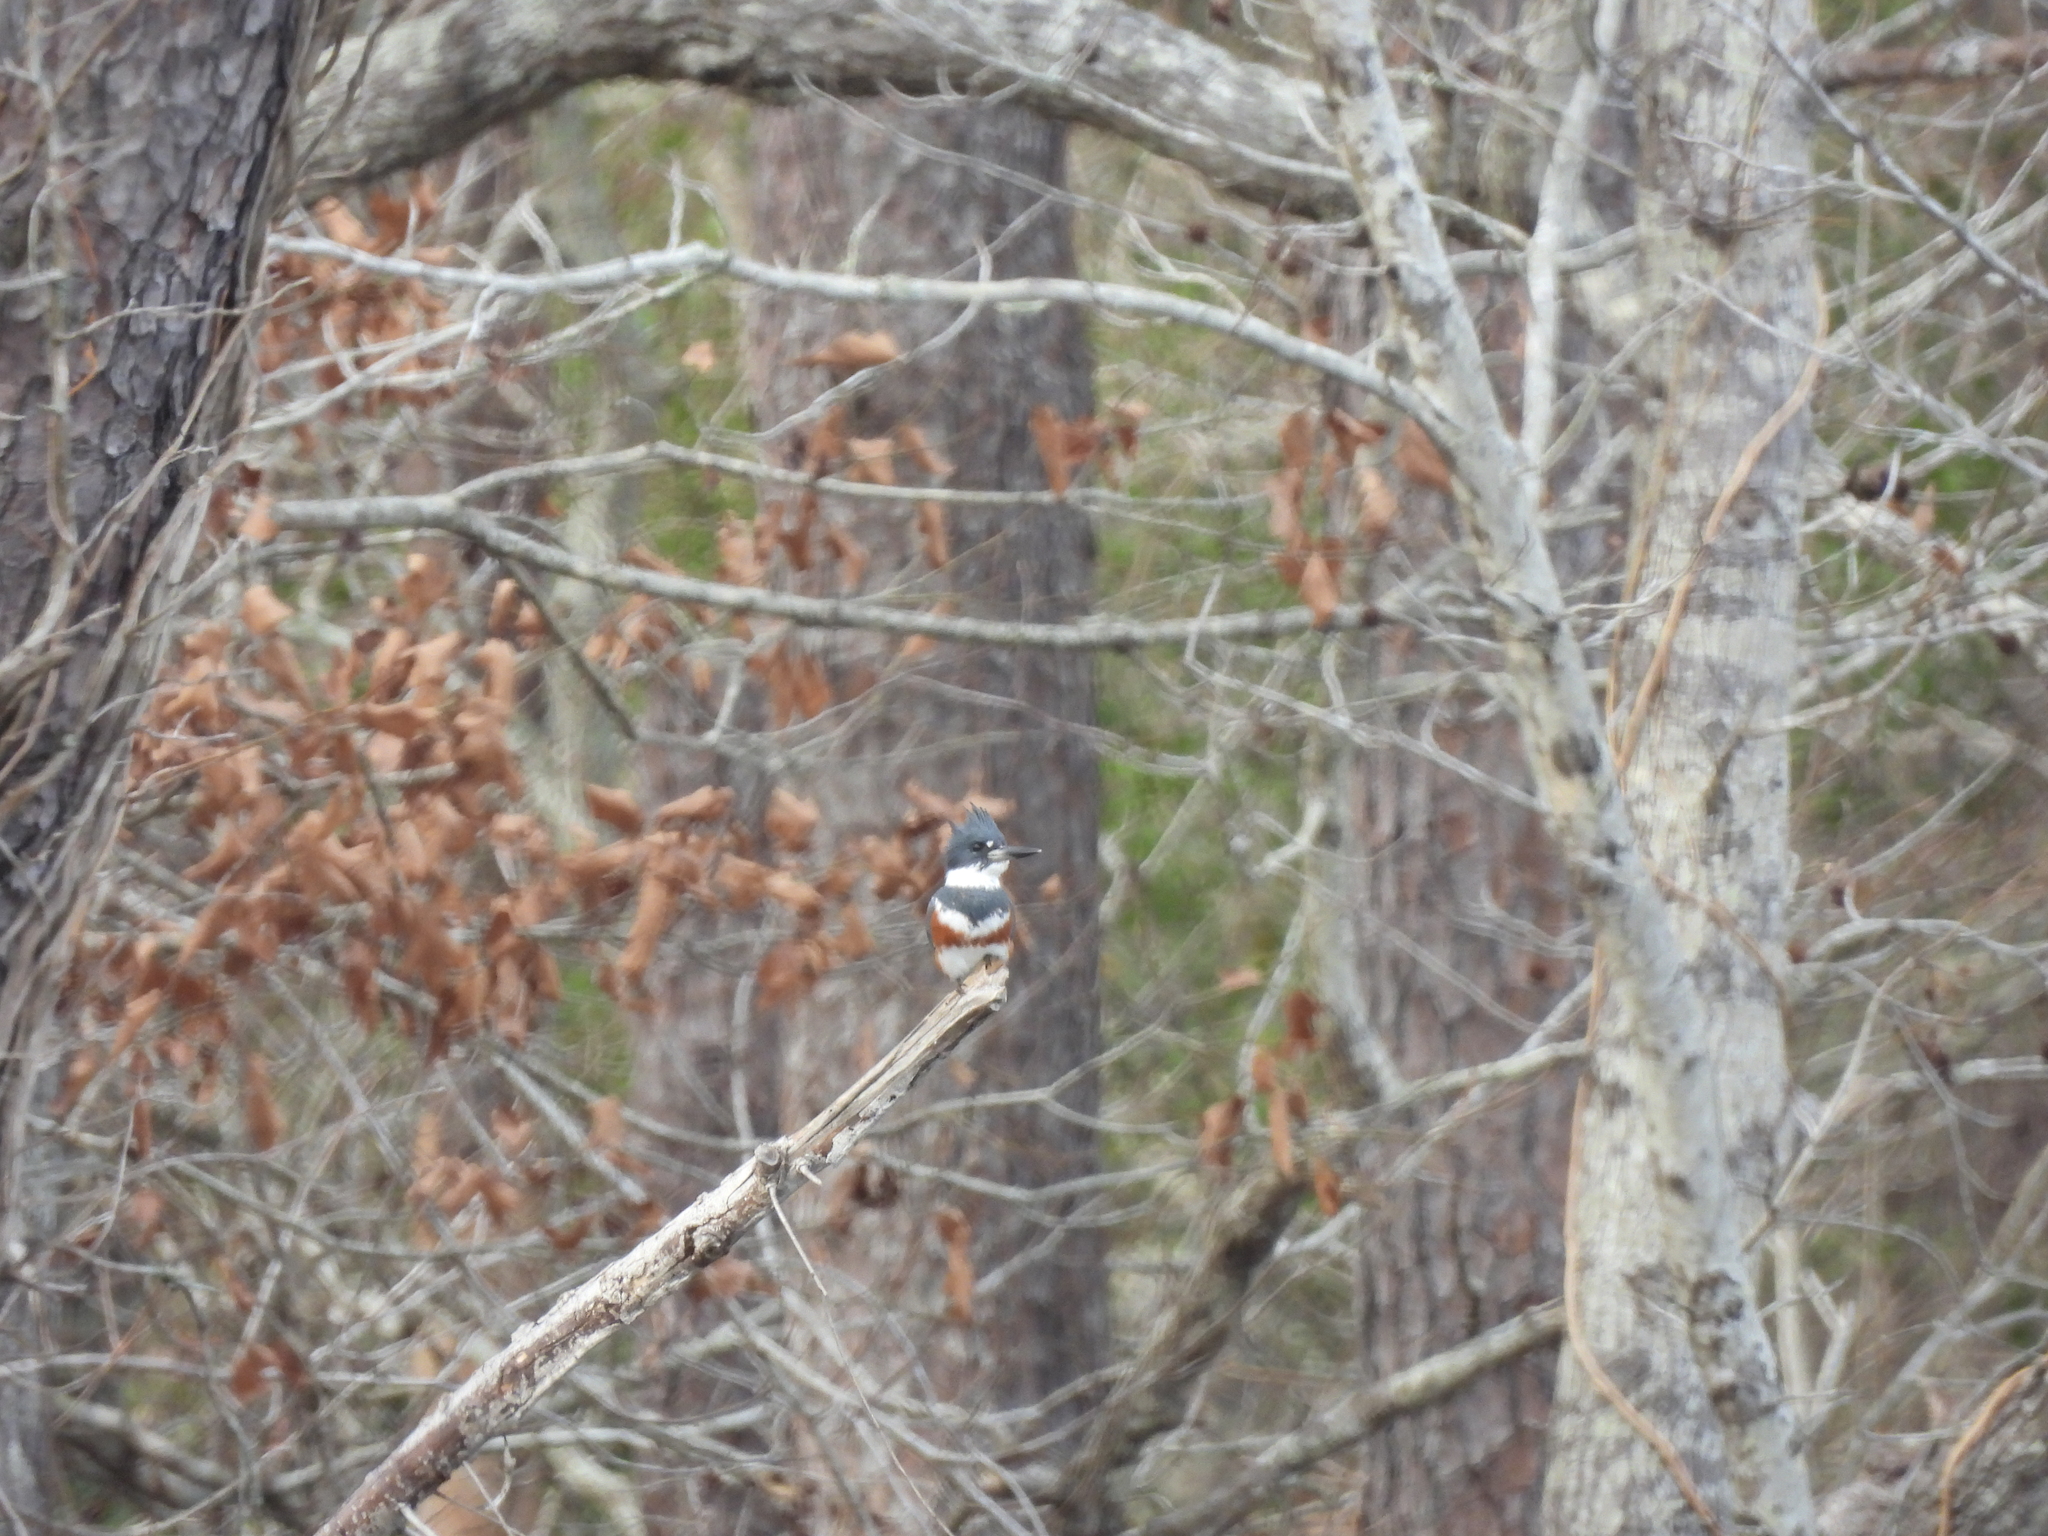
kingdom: Animalia
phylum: Chordata
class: Aves
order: Coraciiformes
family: Alcedinidae
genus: Megaceryle
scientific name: Megaceryle alcyon
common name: Belted kingfisher
